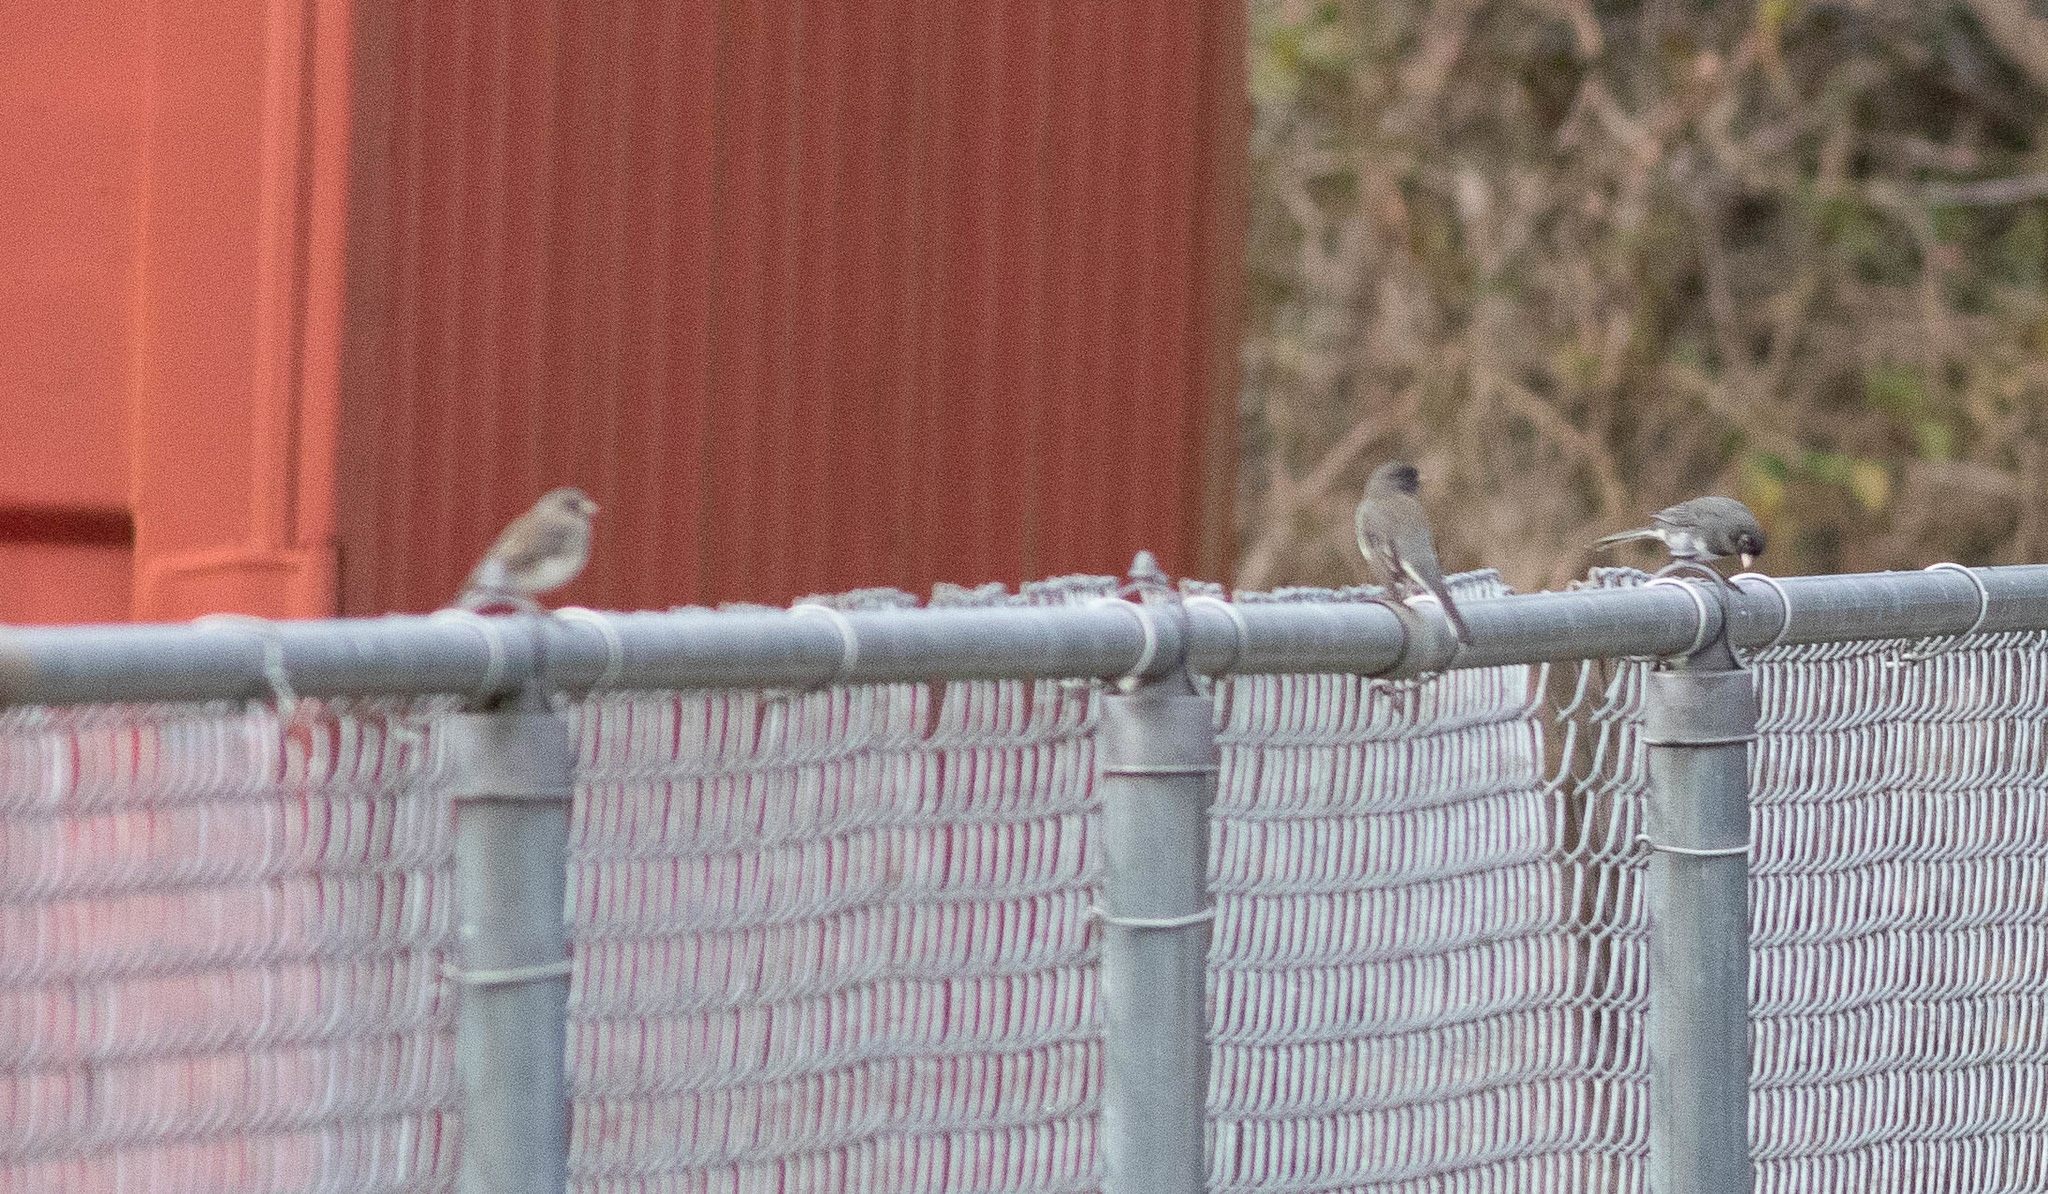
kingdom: Animalia
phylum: Chordata
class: Aves
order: Passeriformes
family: Passerellidae
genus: Junco
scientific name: Junco hyemalis
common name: Dark-eyed junco
